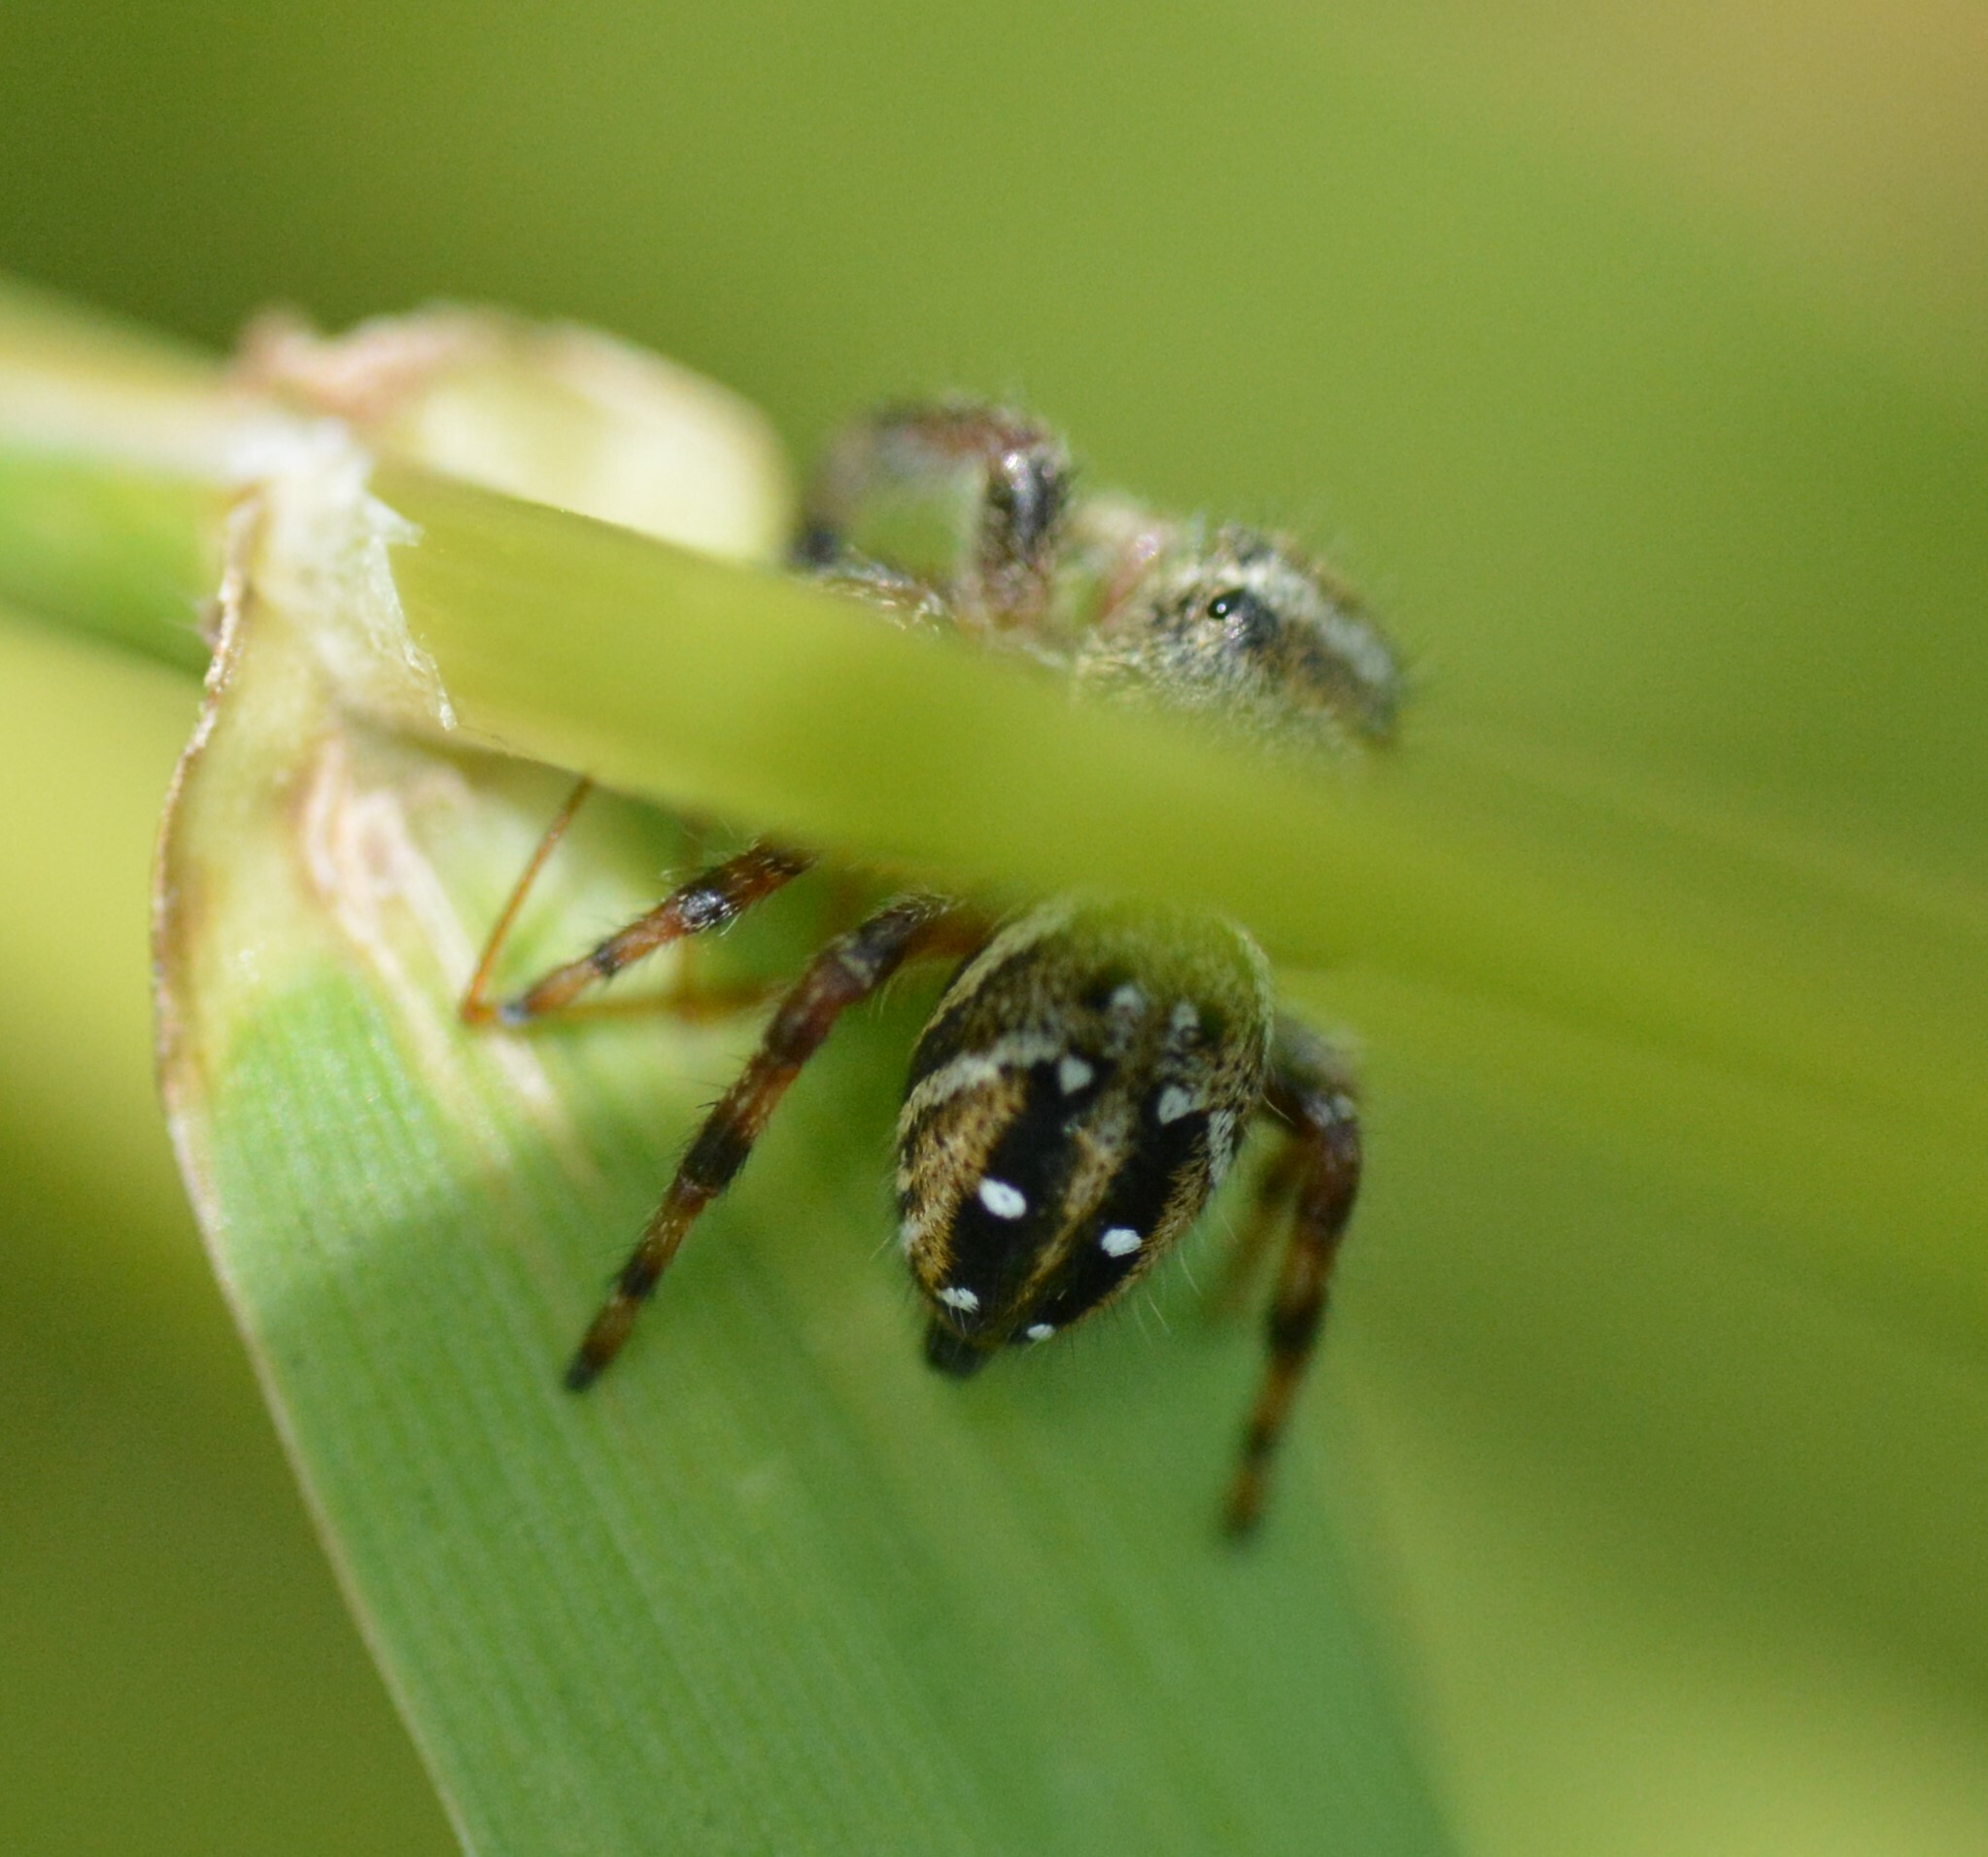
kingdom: Animalia
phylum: Arthropoda
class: Arachnida
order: Araneae
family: Salticidae
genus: Phidippus
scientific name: Phidippus clarus
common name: Brilliant jumping spider
